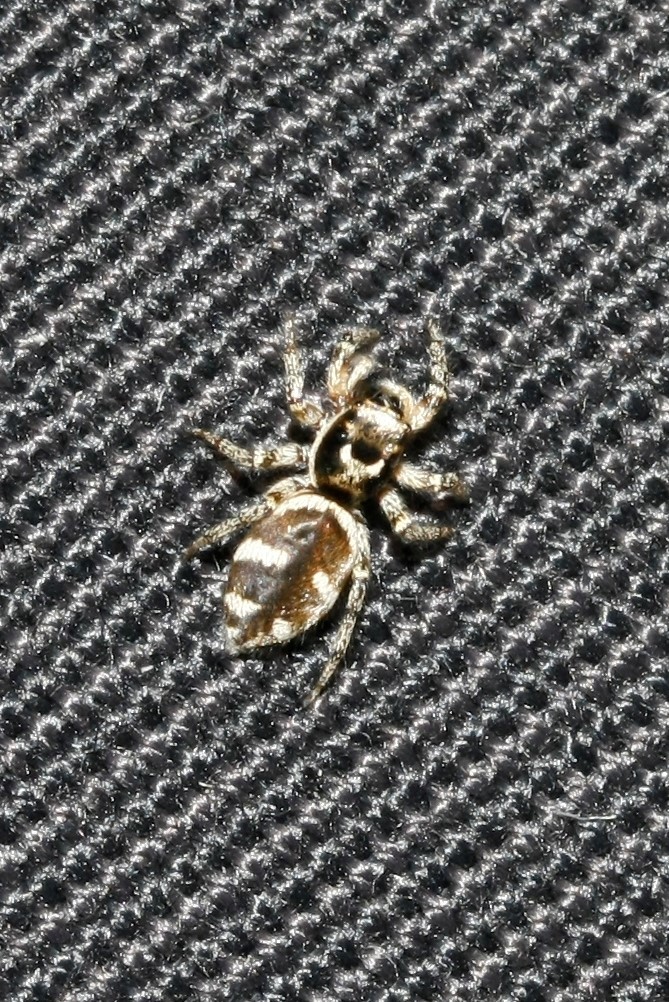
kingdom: Animalia
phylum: Arthropoda
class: Arachnida
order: Araneae
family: Salticidae
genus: Salticus
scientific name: Salticus scenicus
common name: Zebra jumper
